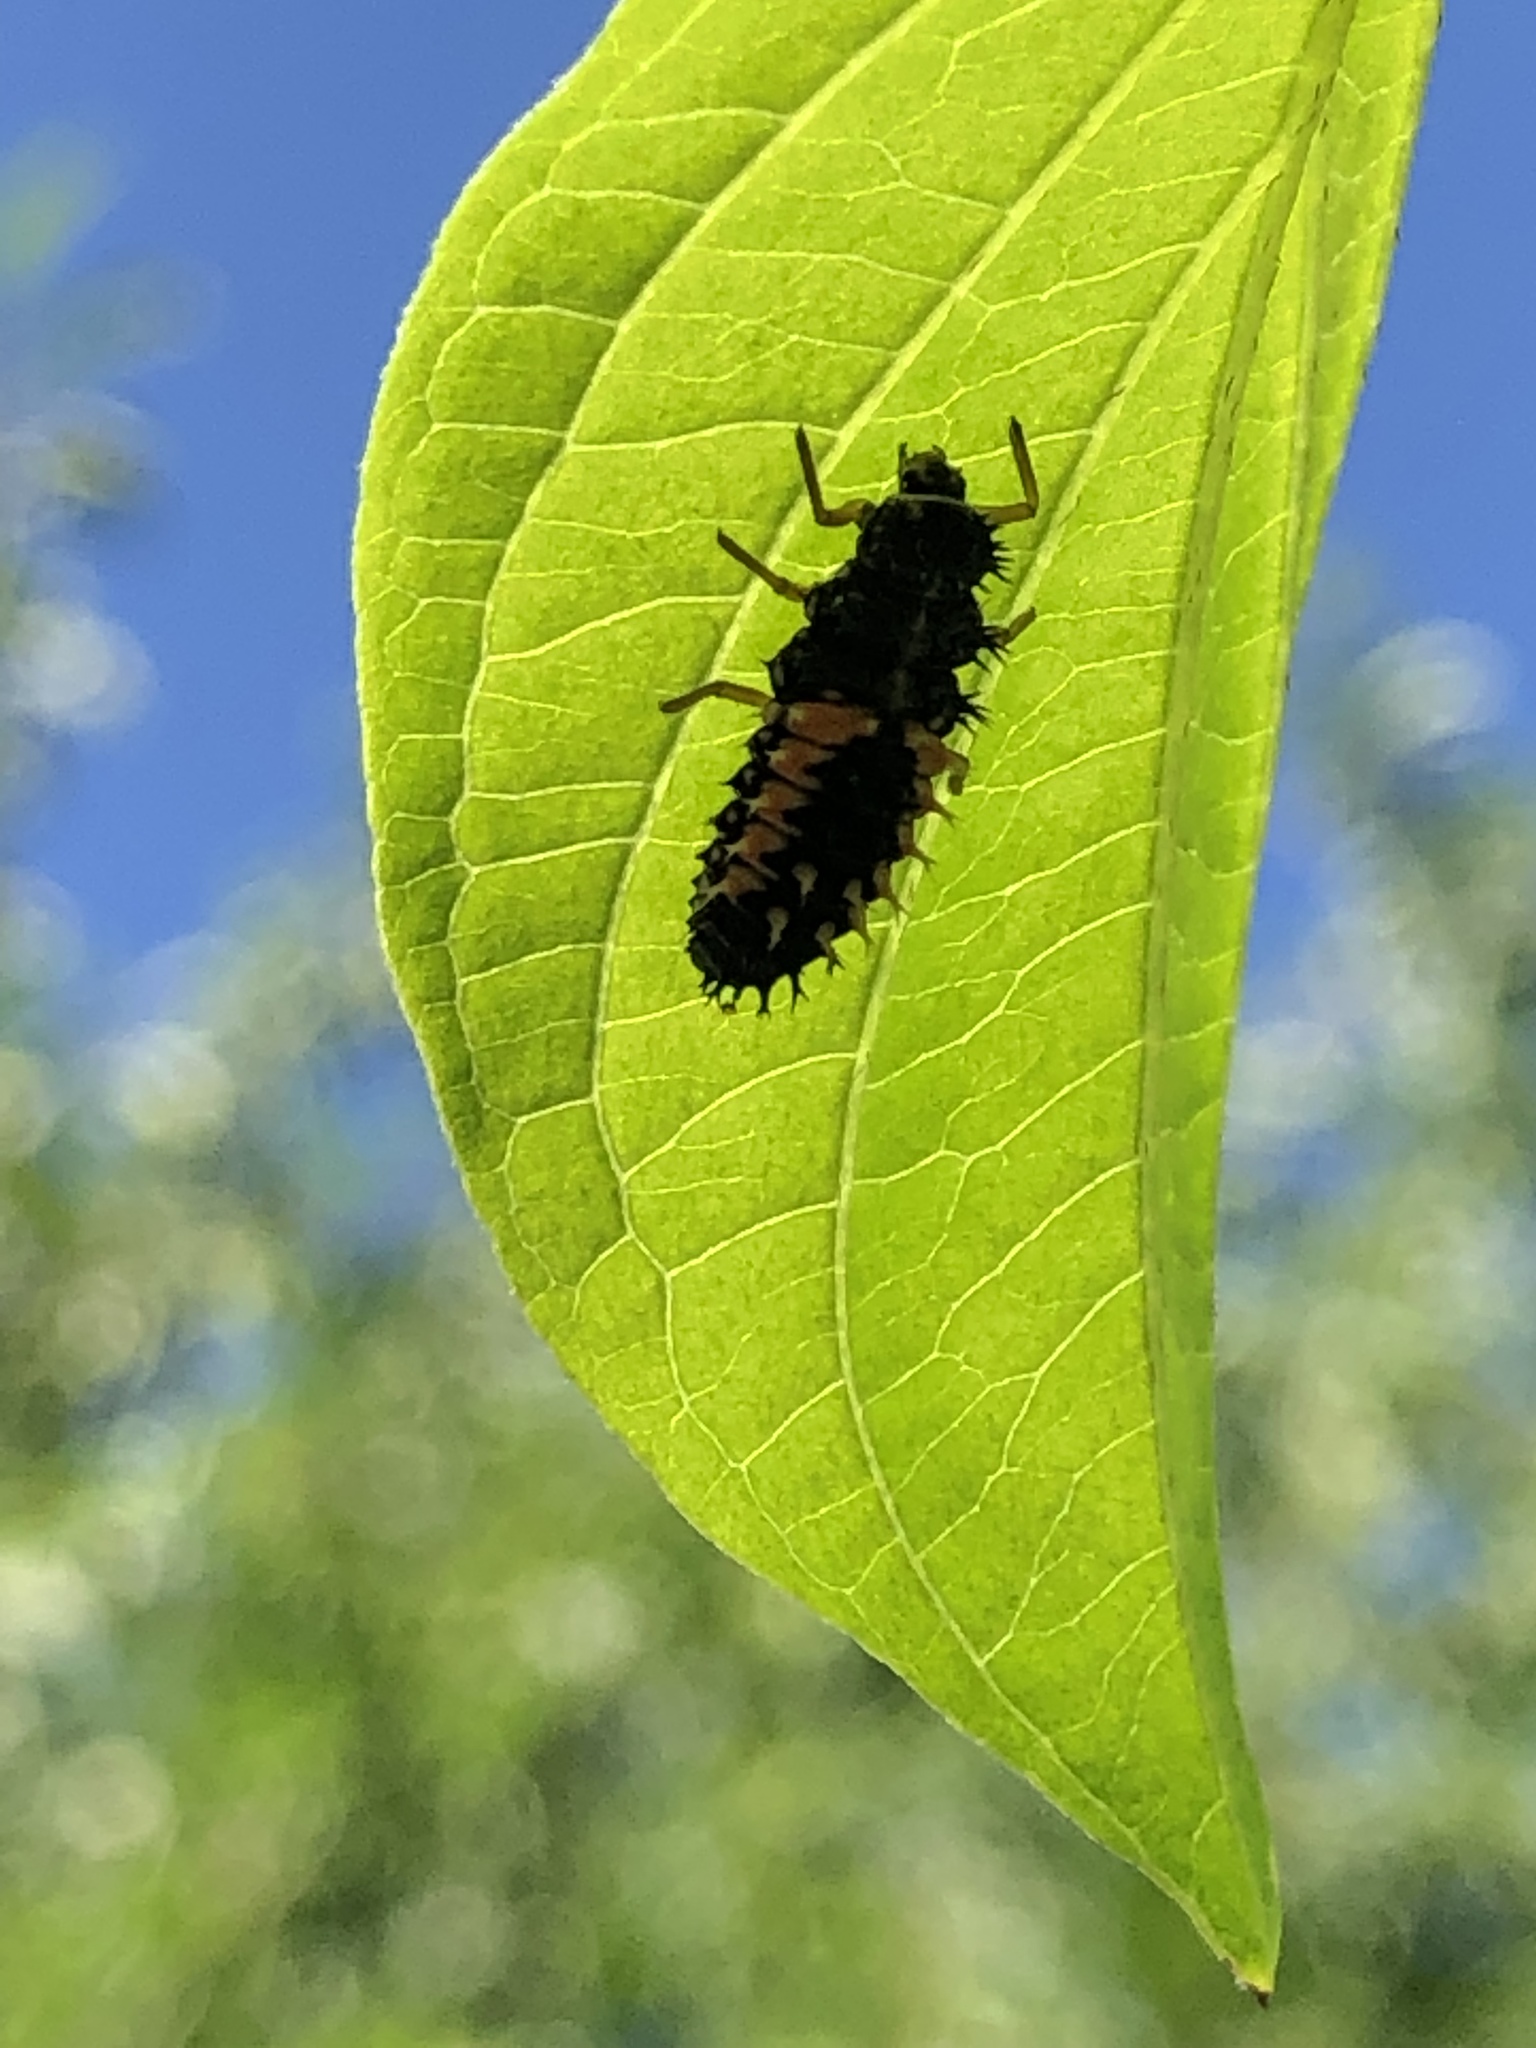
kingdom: Animalia
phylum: Arthropoda
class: Insecta
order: Coleoptera
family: Coccinellidae
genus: Harmonia
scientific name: Harmonia axyridis
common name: Harlequin ladybird
